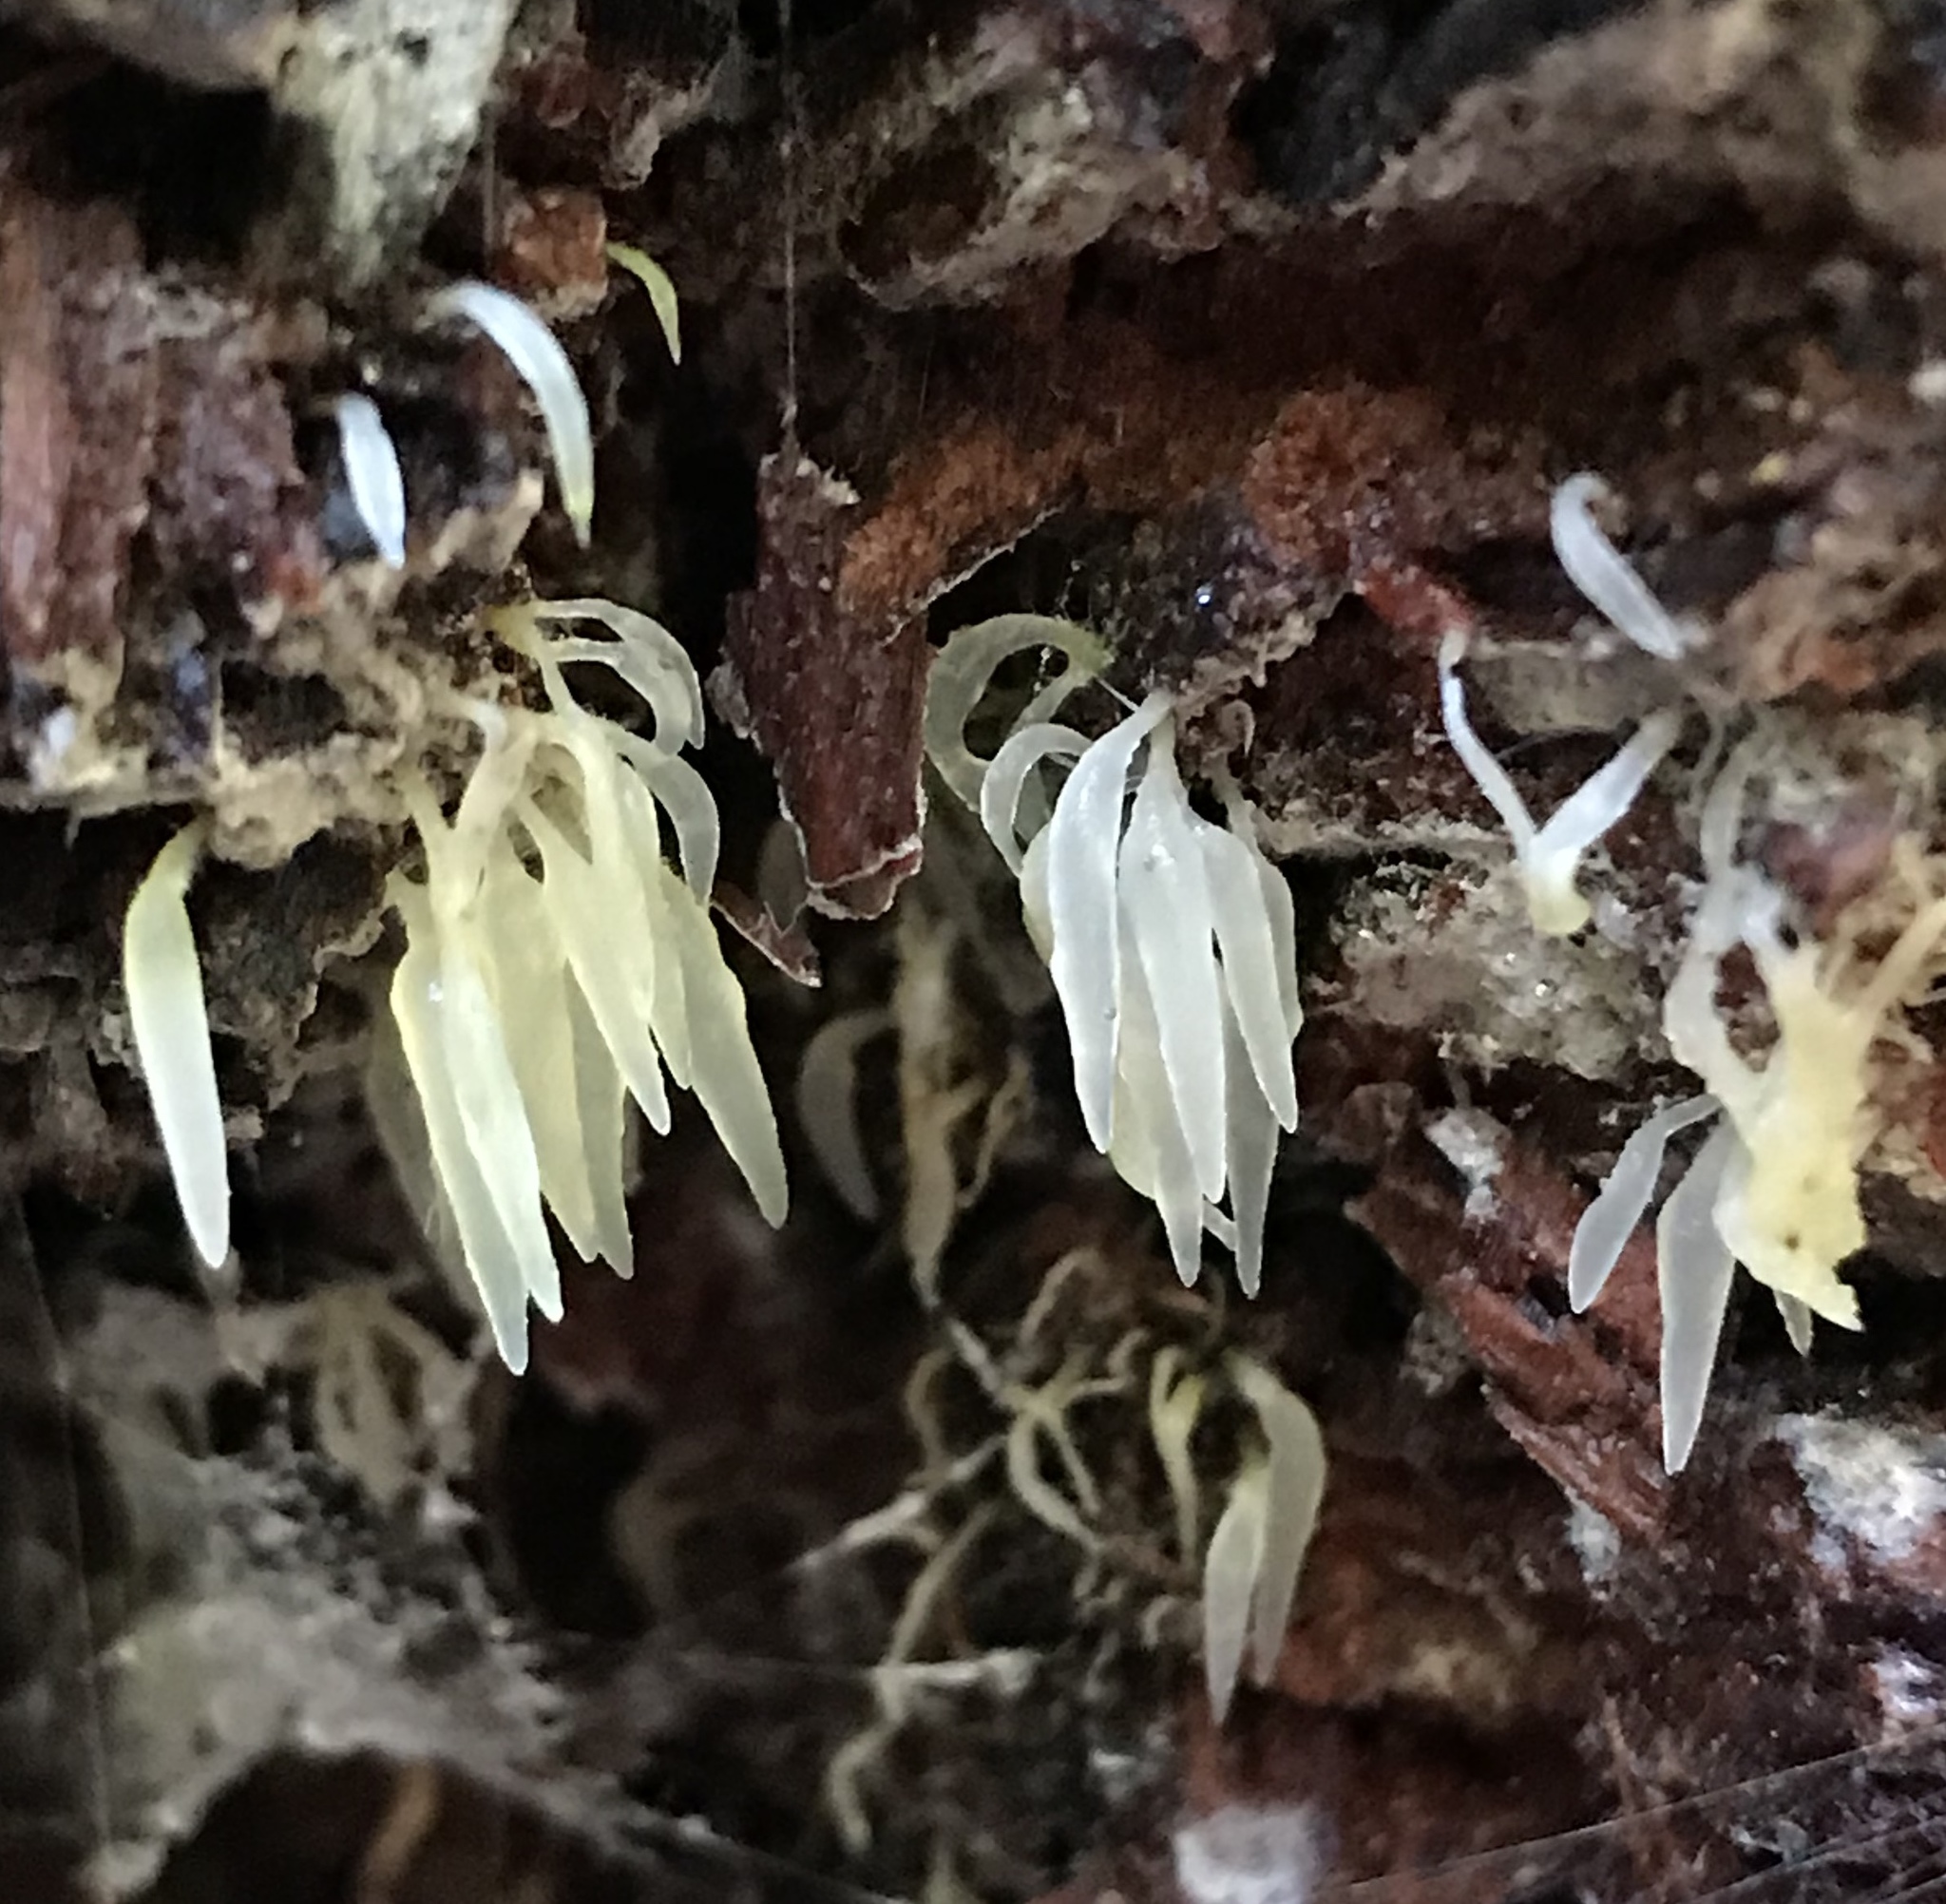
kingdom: Fungi
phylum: Basidiomycota
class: Agaricomycetes
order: Agaricales
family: Clavariaceae
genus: Mucronella
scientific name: Mucronella fusiformis
